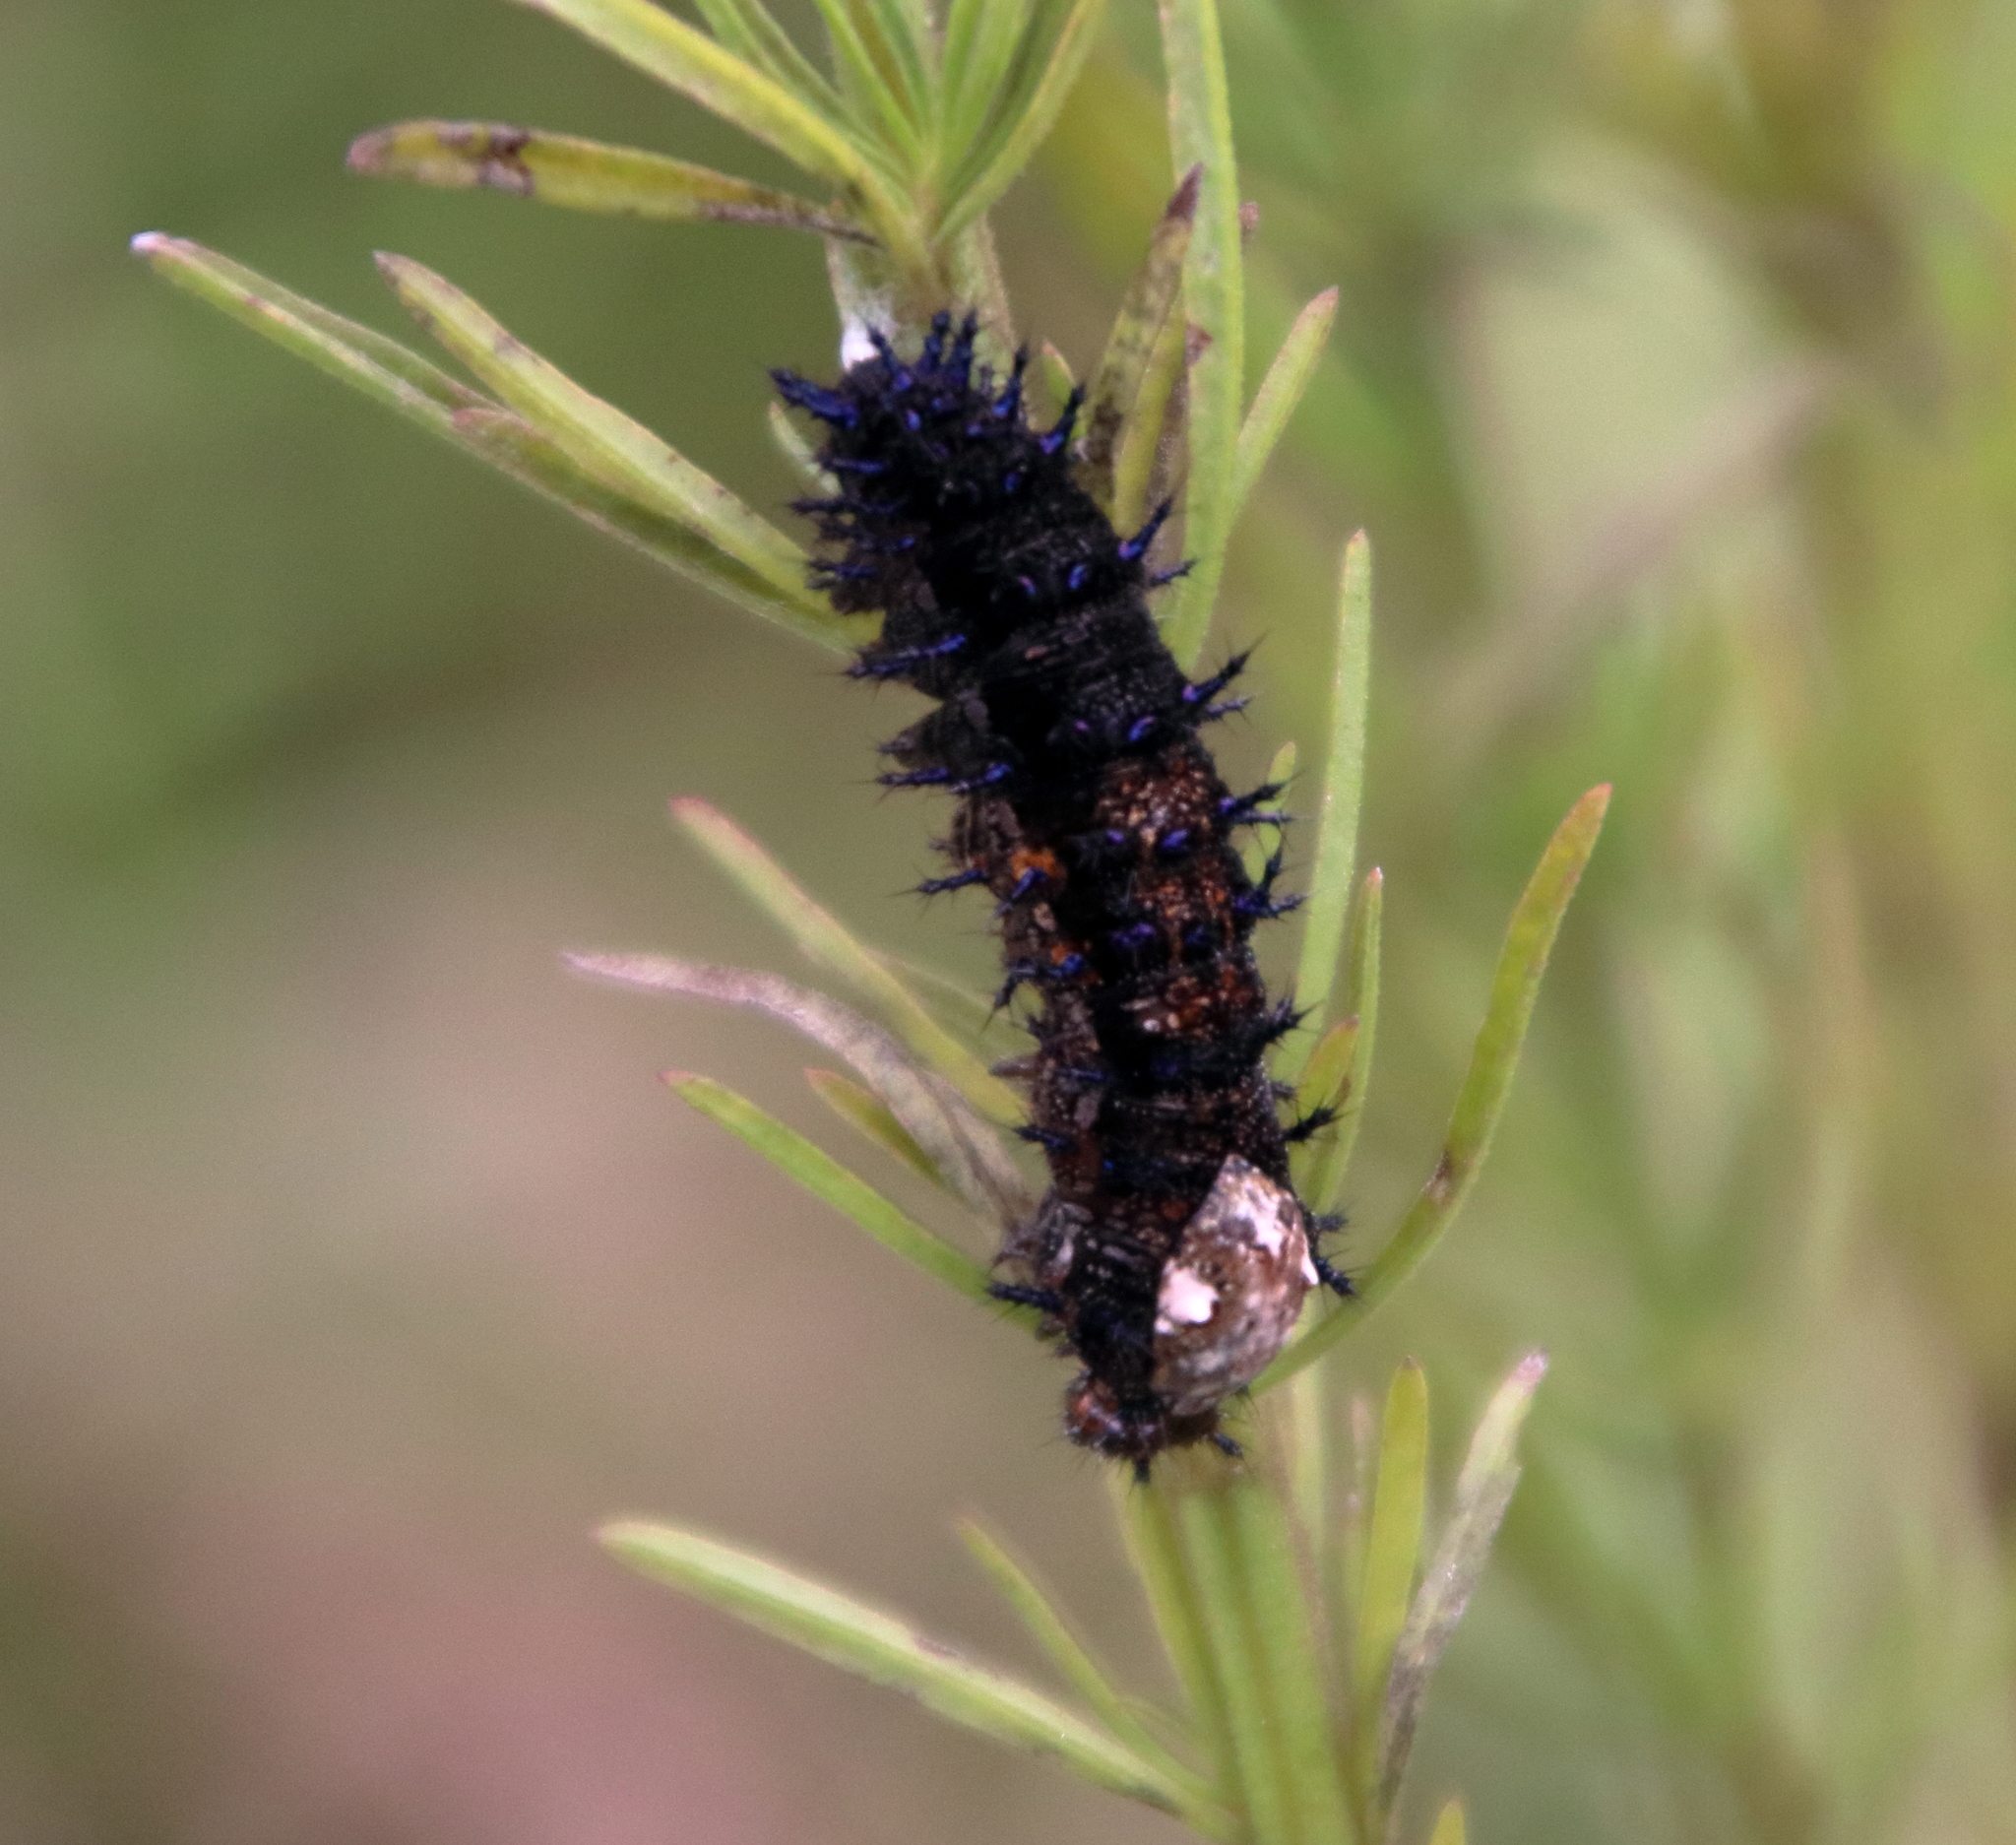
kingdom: Animalia
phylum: Arthropoda
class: Insecta
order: Lepidoptera
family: Nymphalidae
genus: Junonia
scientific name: Junonia coenia
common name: Common buckeye
